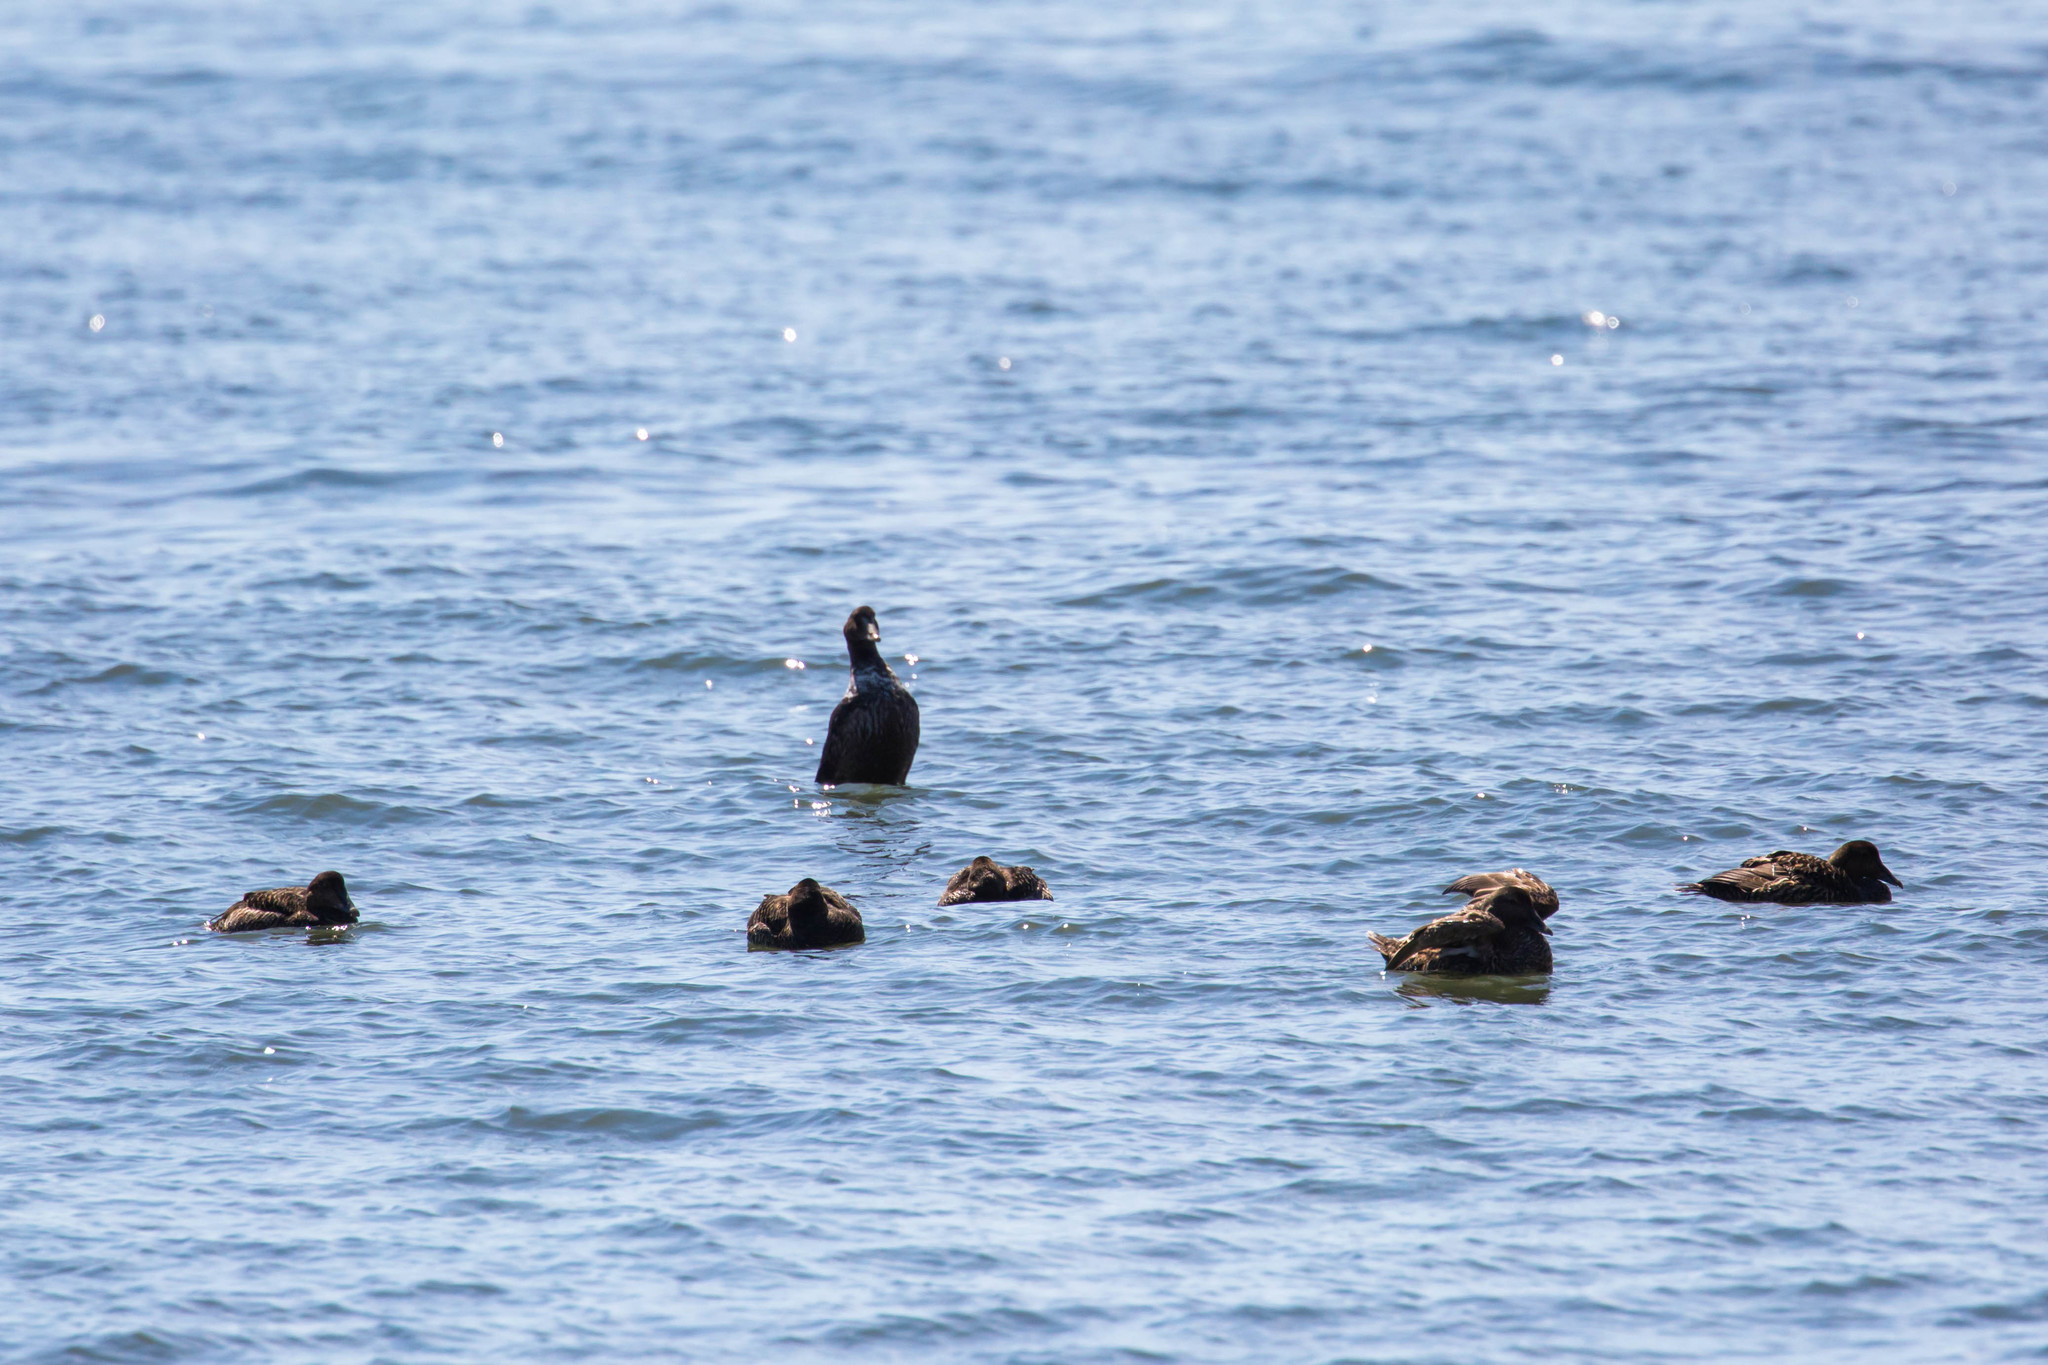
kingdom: Animalia
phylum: Chordata
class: Aves
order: Anseriformes
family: Anatidae
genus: Somateria
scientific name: Somateria mollissima
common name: Common eider
